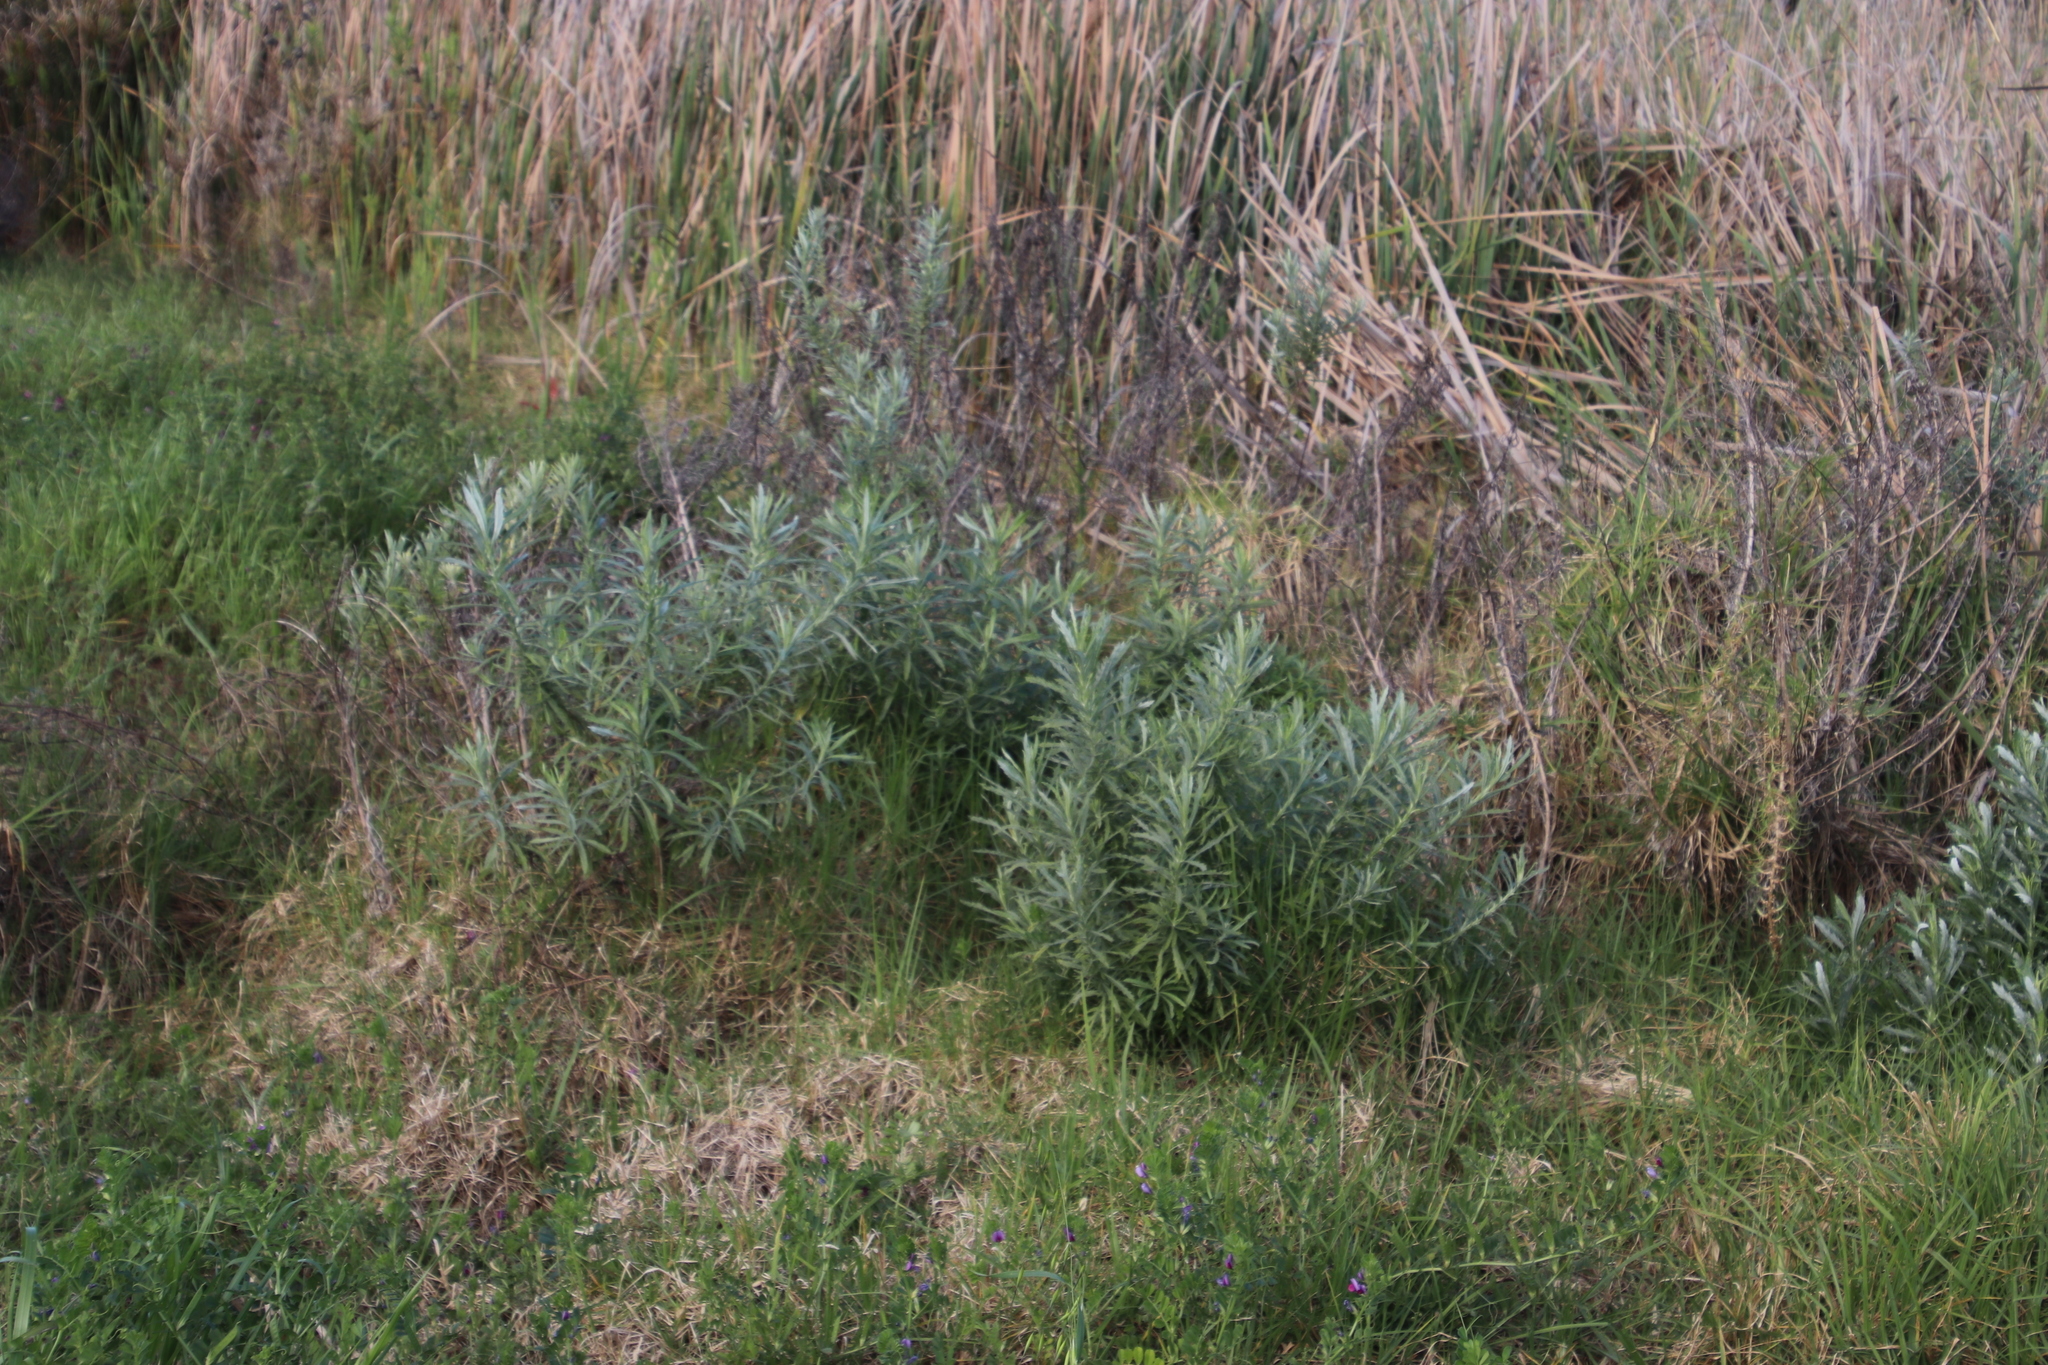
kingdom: Plantae
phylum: Tracheophyta
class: Magnoliopsida
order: Asterales
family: Asteraceae
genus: Senecio
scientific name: Senecio pterophorus
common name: Shoddy ragwort
